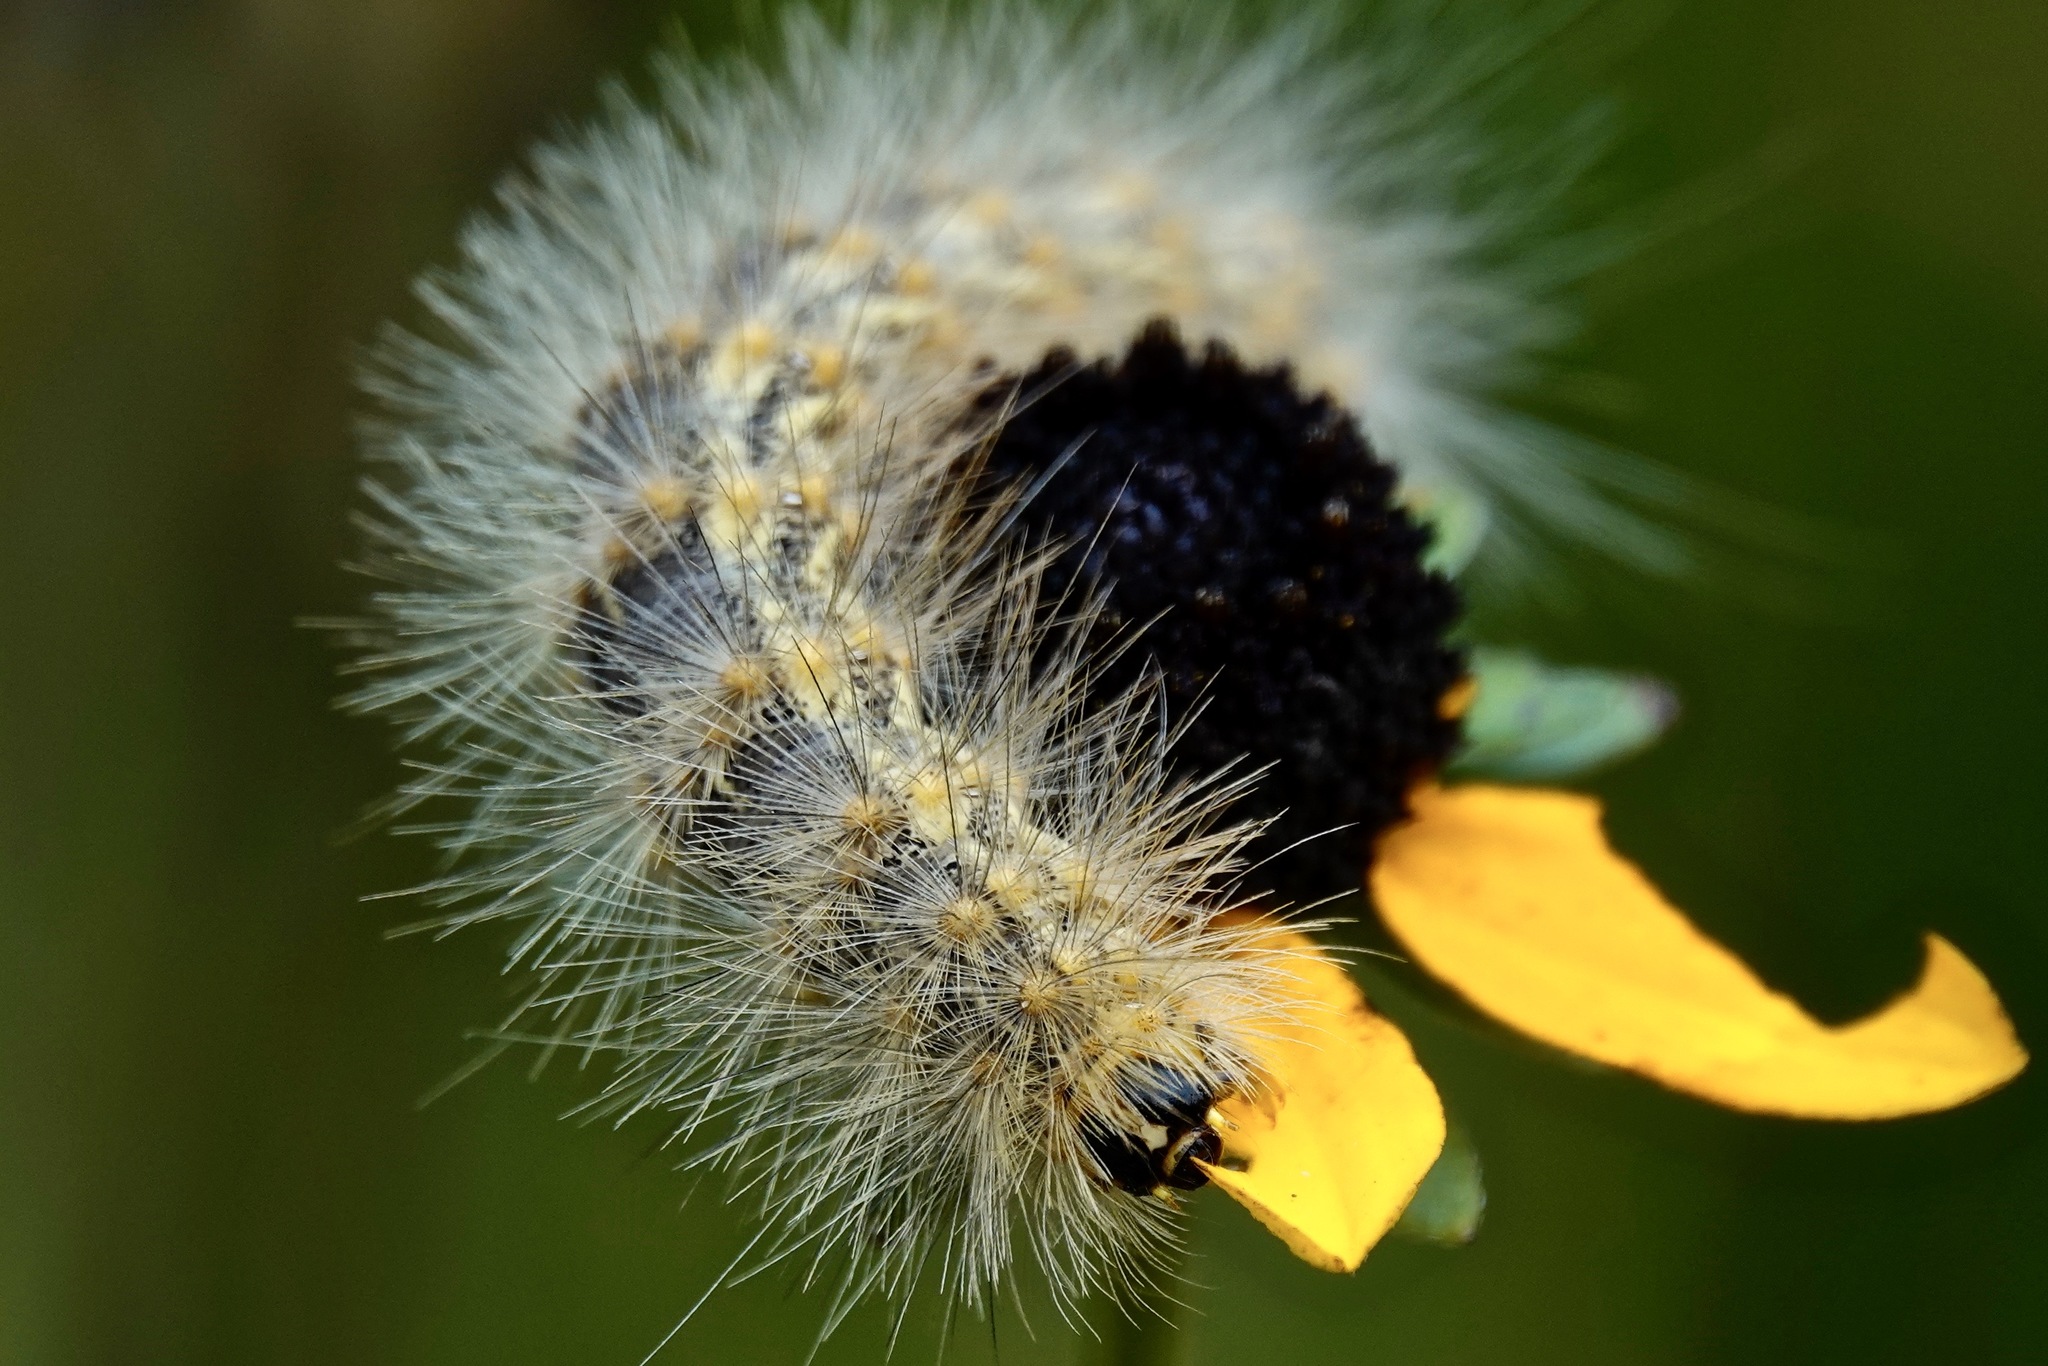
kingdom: Animalia
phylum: Arthropoda
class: Insecta
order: Lepidoptera
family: Erebidae
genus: Estigmene
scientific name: Estigmene acrea
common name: Salt marsh moth
